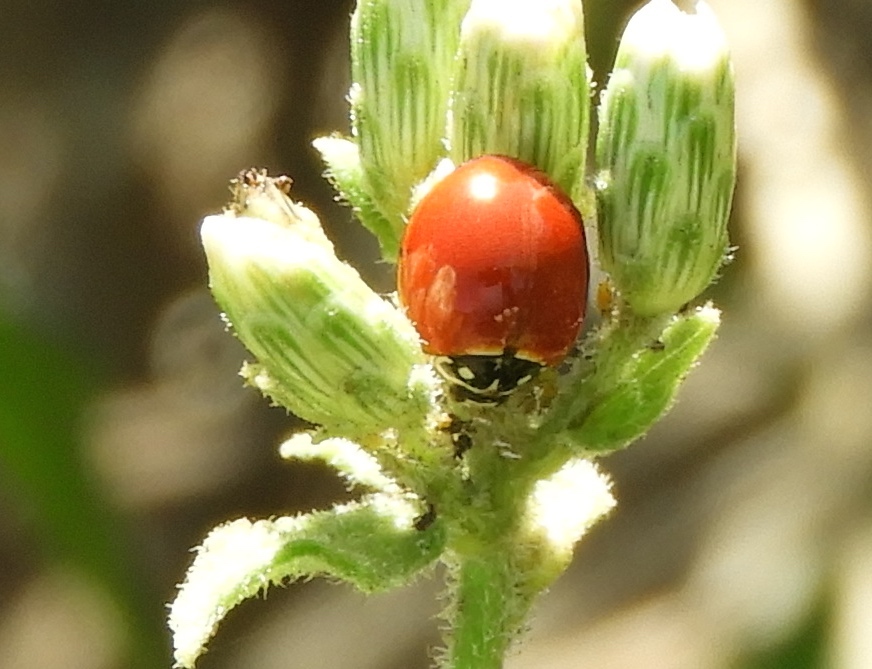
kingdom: Animalia
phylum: Arthropoda
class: Insecta
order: Coleoptera
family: Coccinellidae
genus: Cycloneda
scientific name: Cycloneda sanguinea
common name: Ladybird beetle
